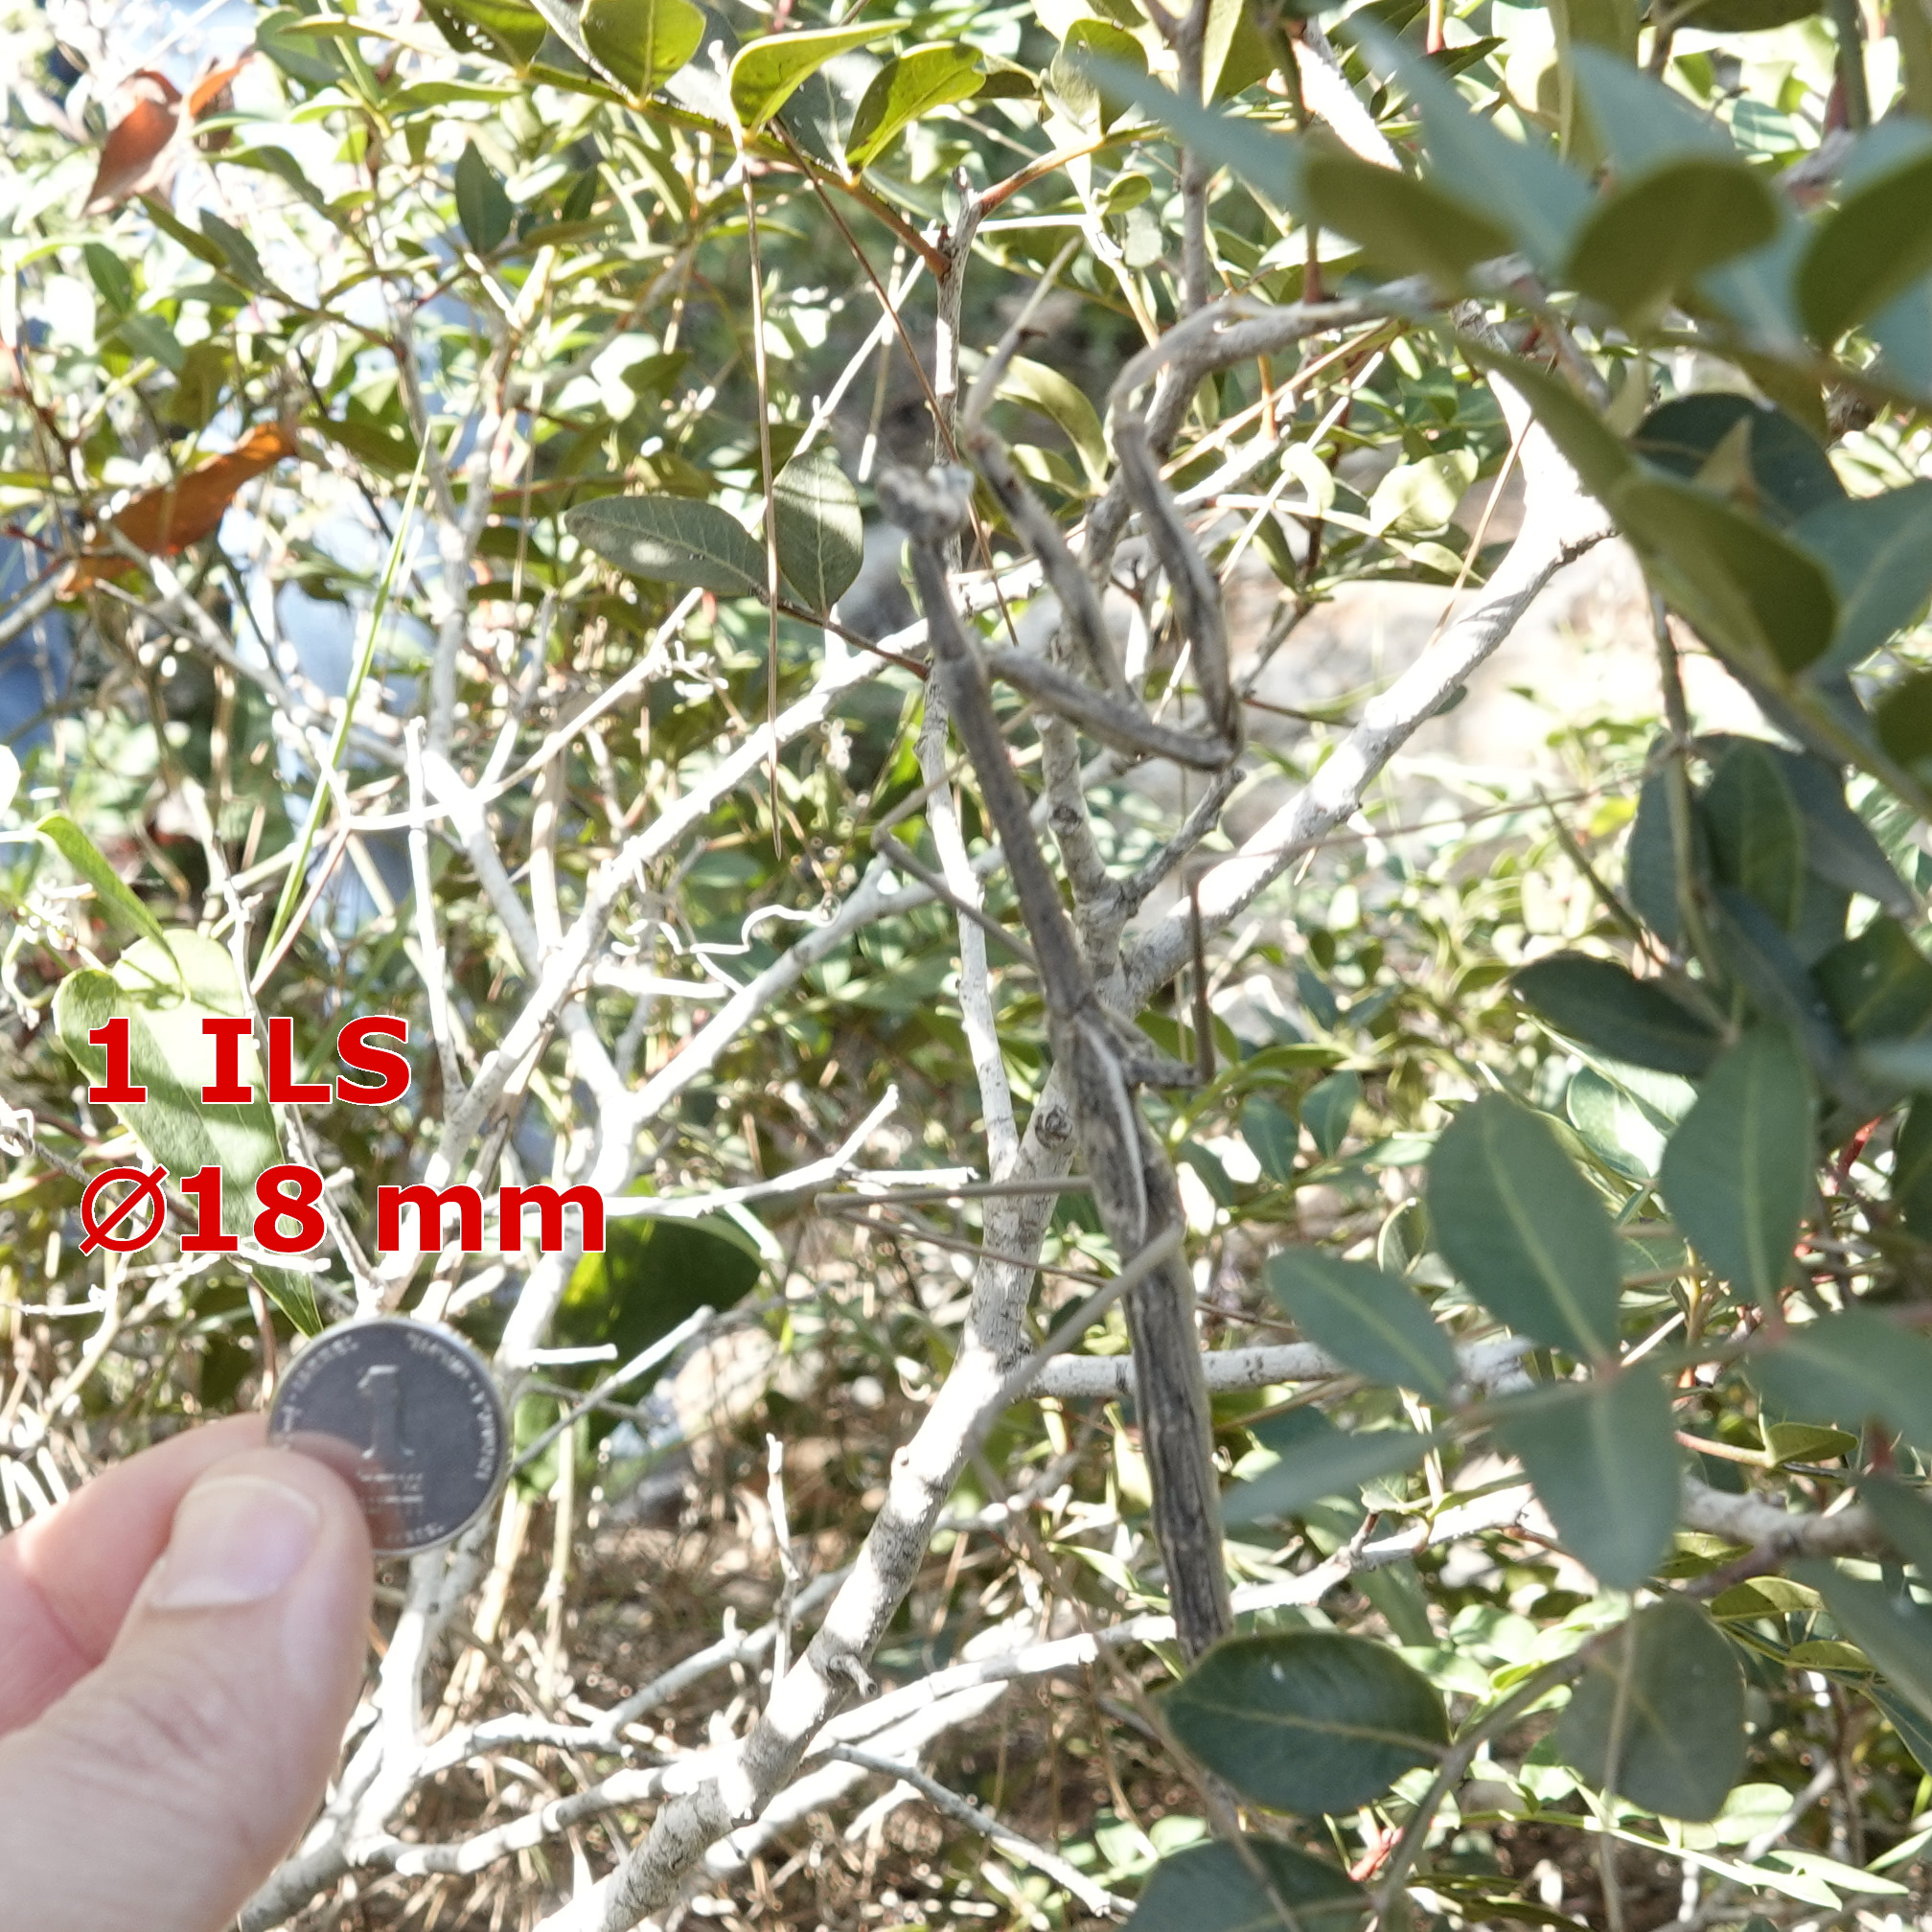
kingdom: Animalia
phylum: Arthropoda
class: Insecta
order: Mantodea
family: Rivetinidae
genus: Eremoplana
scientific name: Eremoplana infelix
